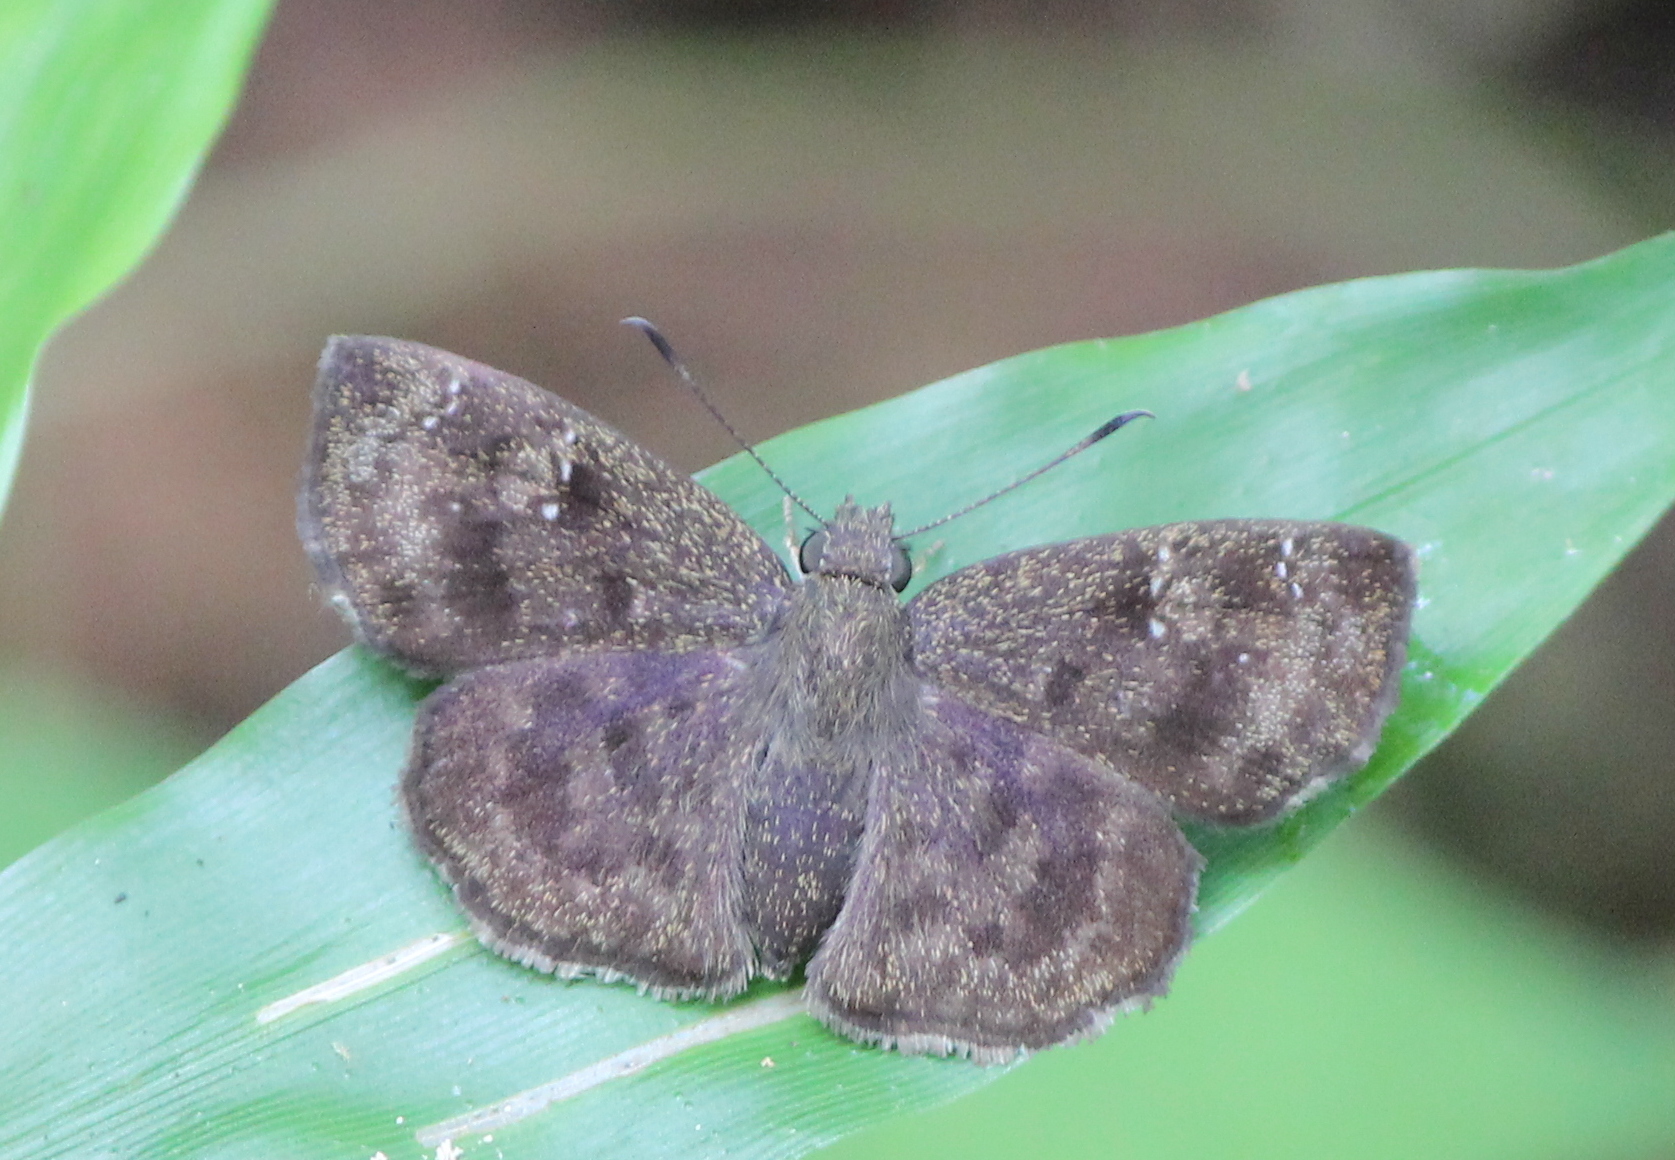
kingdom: Animalia
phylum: Arthropoda
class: Insecta
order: Lepidoptera
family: Hesperiidae
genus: Sarangesa
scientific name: Sarangesa dasahara
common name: Common small flat
